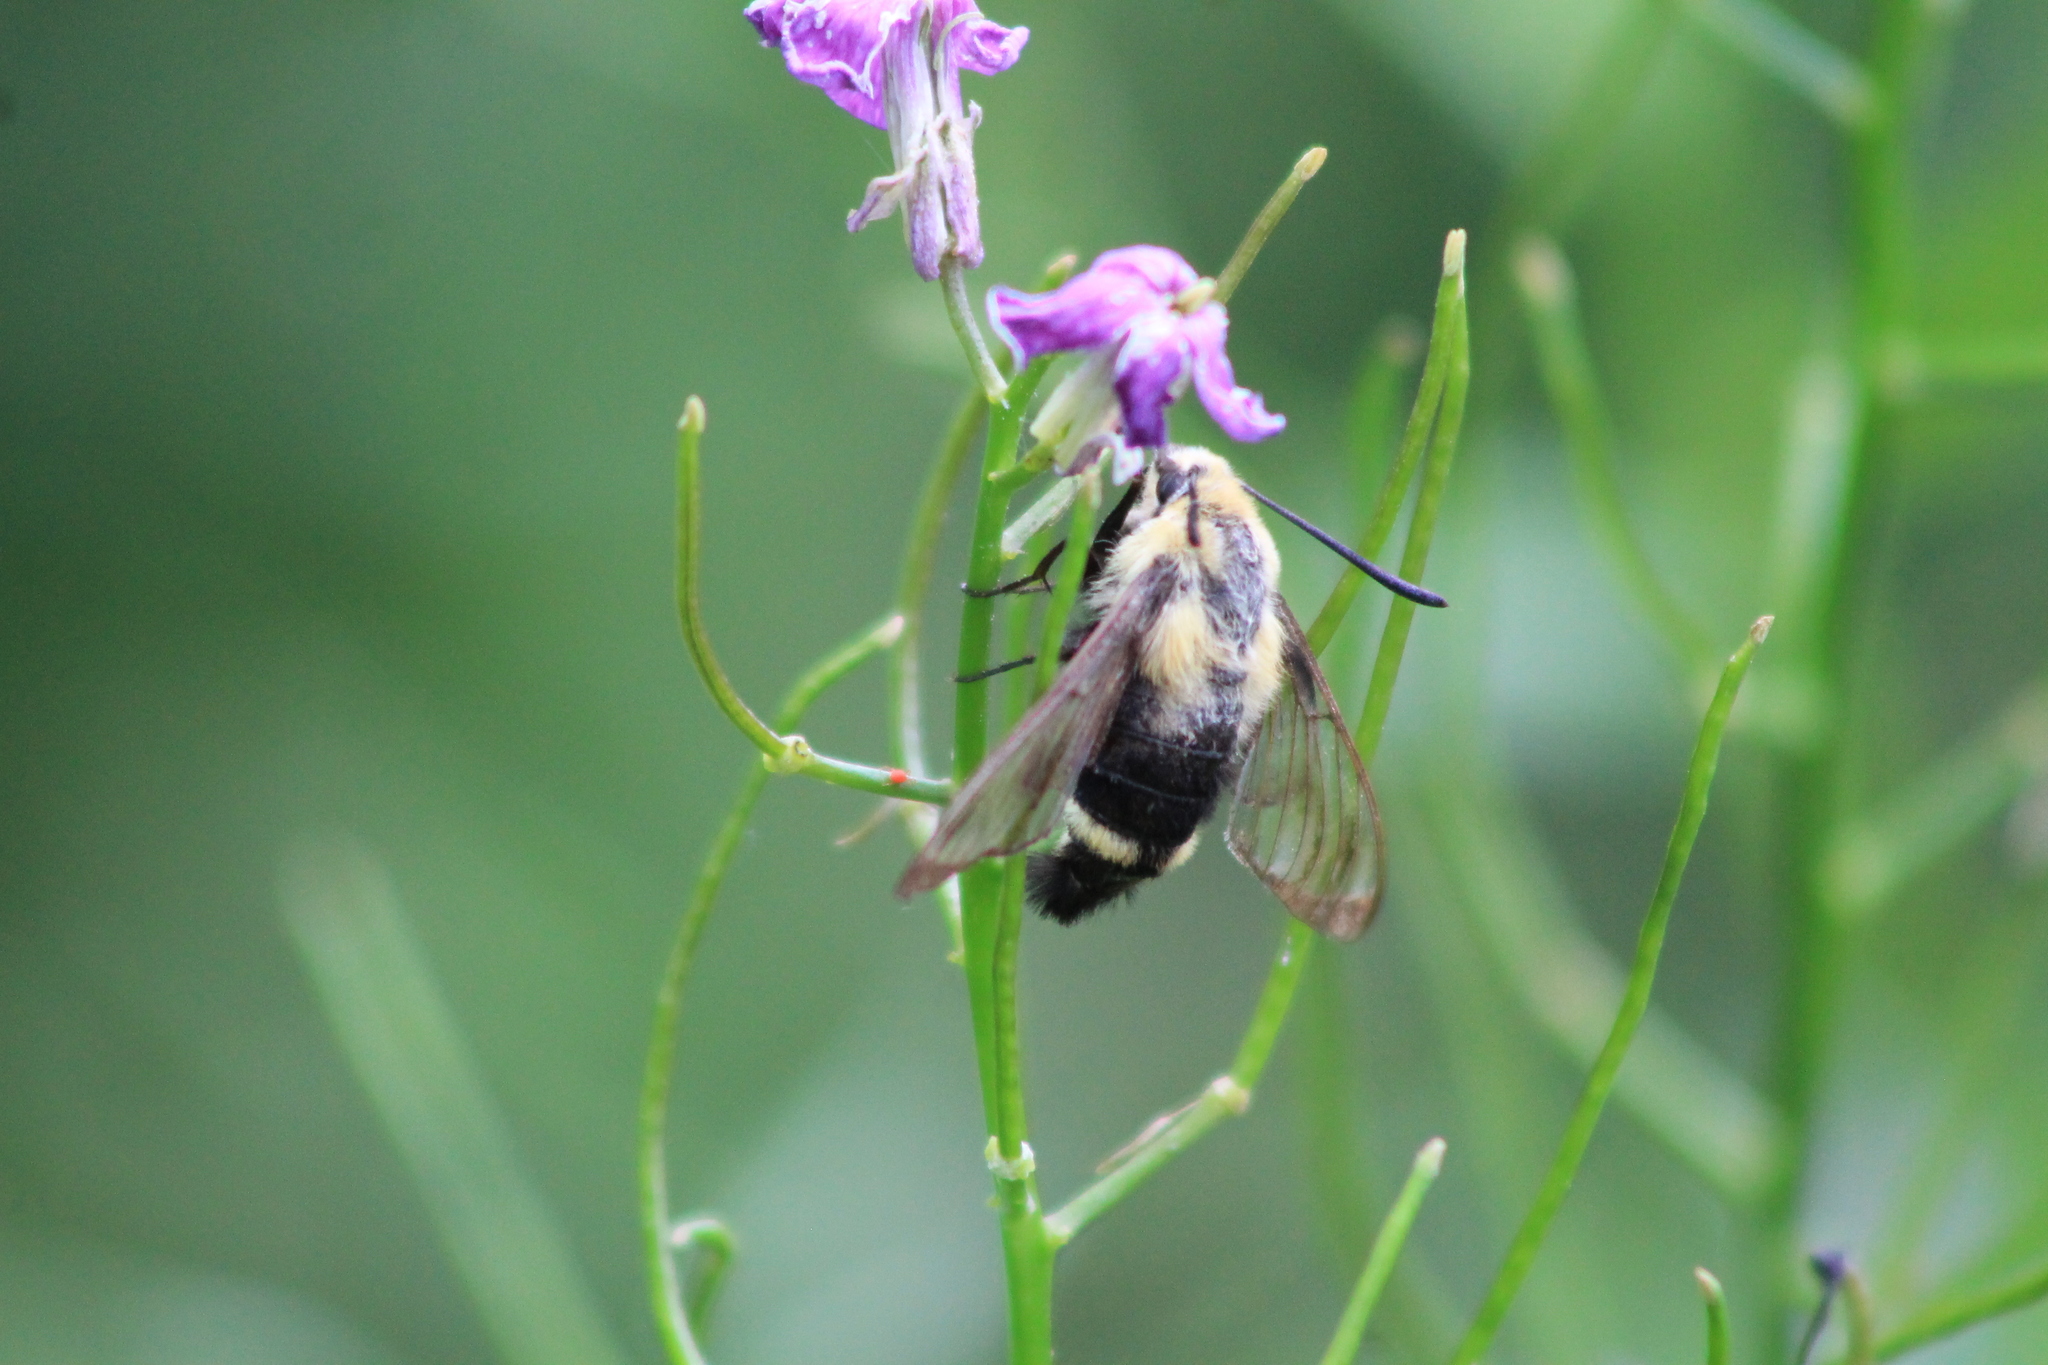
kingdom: Animalia
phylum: Arthropoda
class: Insecta
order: Lepidoptera
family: Sphingidae
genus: Hemaris
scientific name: Hemaris diffinis
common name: Bumblebee moth
